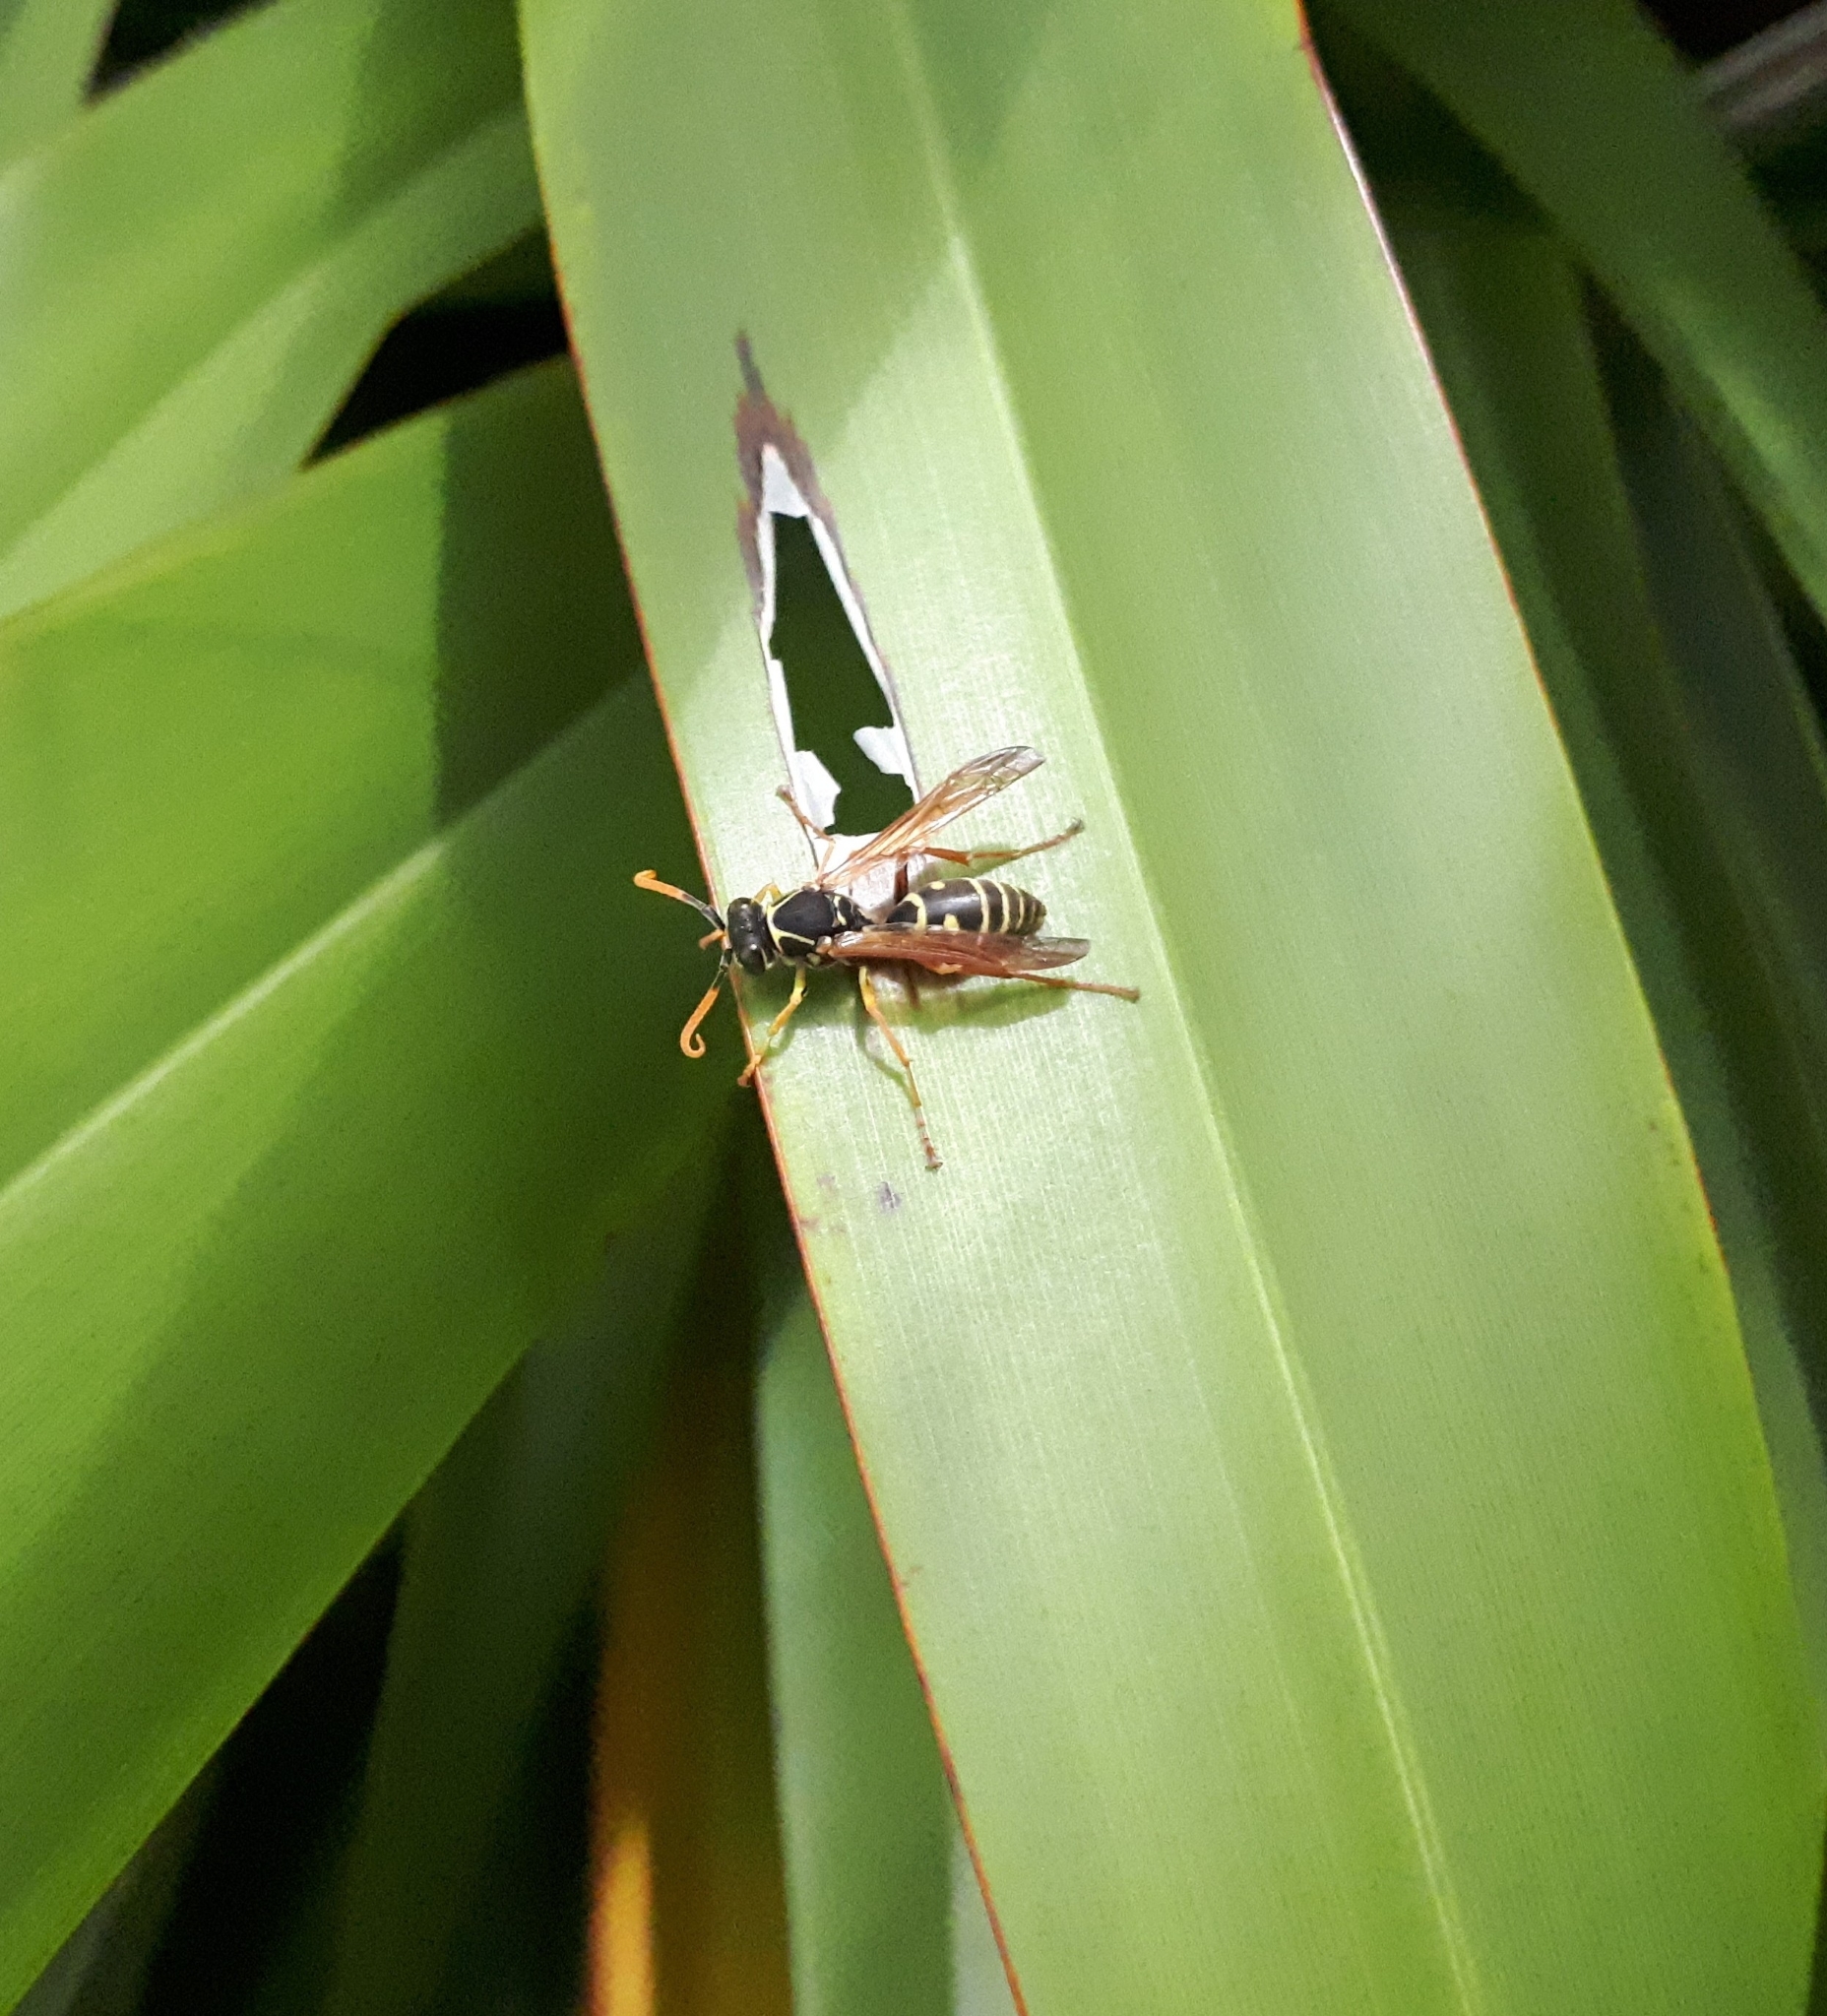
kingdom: Animalia
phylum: Arthropoda
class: Insecta
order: Hymenoptera
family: Eumenidae
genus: Polistes
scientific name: Polistes chinensis
